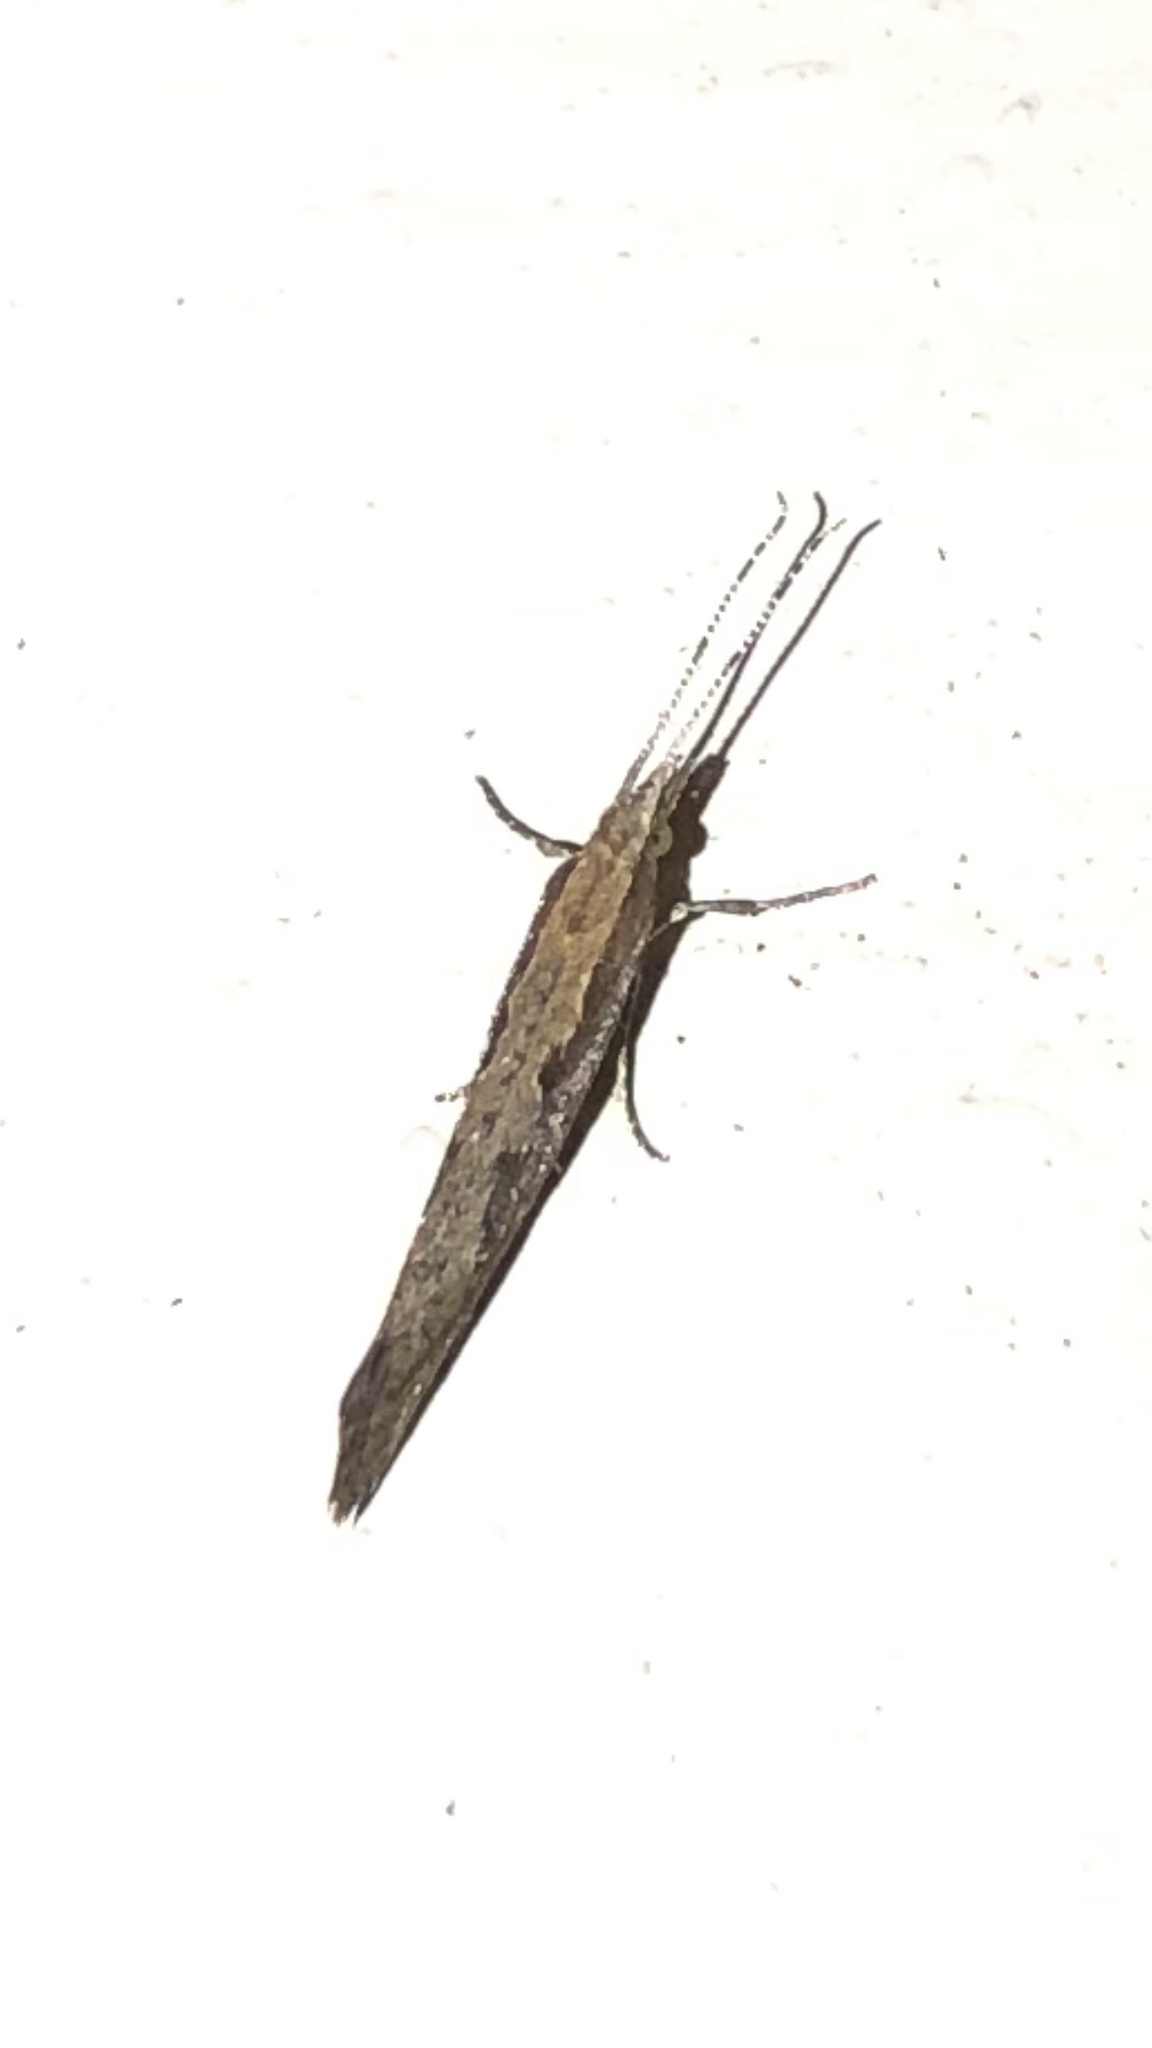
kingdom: Animalia
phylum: Arthropoda
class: Insecta
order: Lepidoptera
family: Plutellidae
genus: Plutella
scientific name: Plutella xylostella
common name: Diamond-back moth
